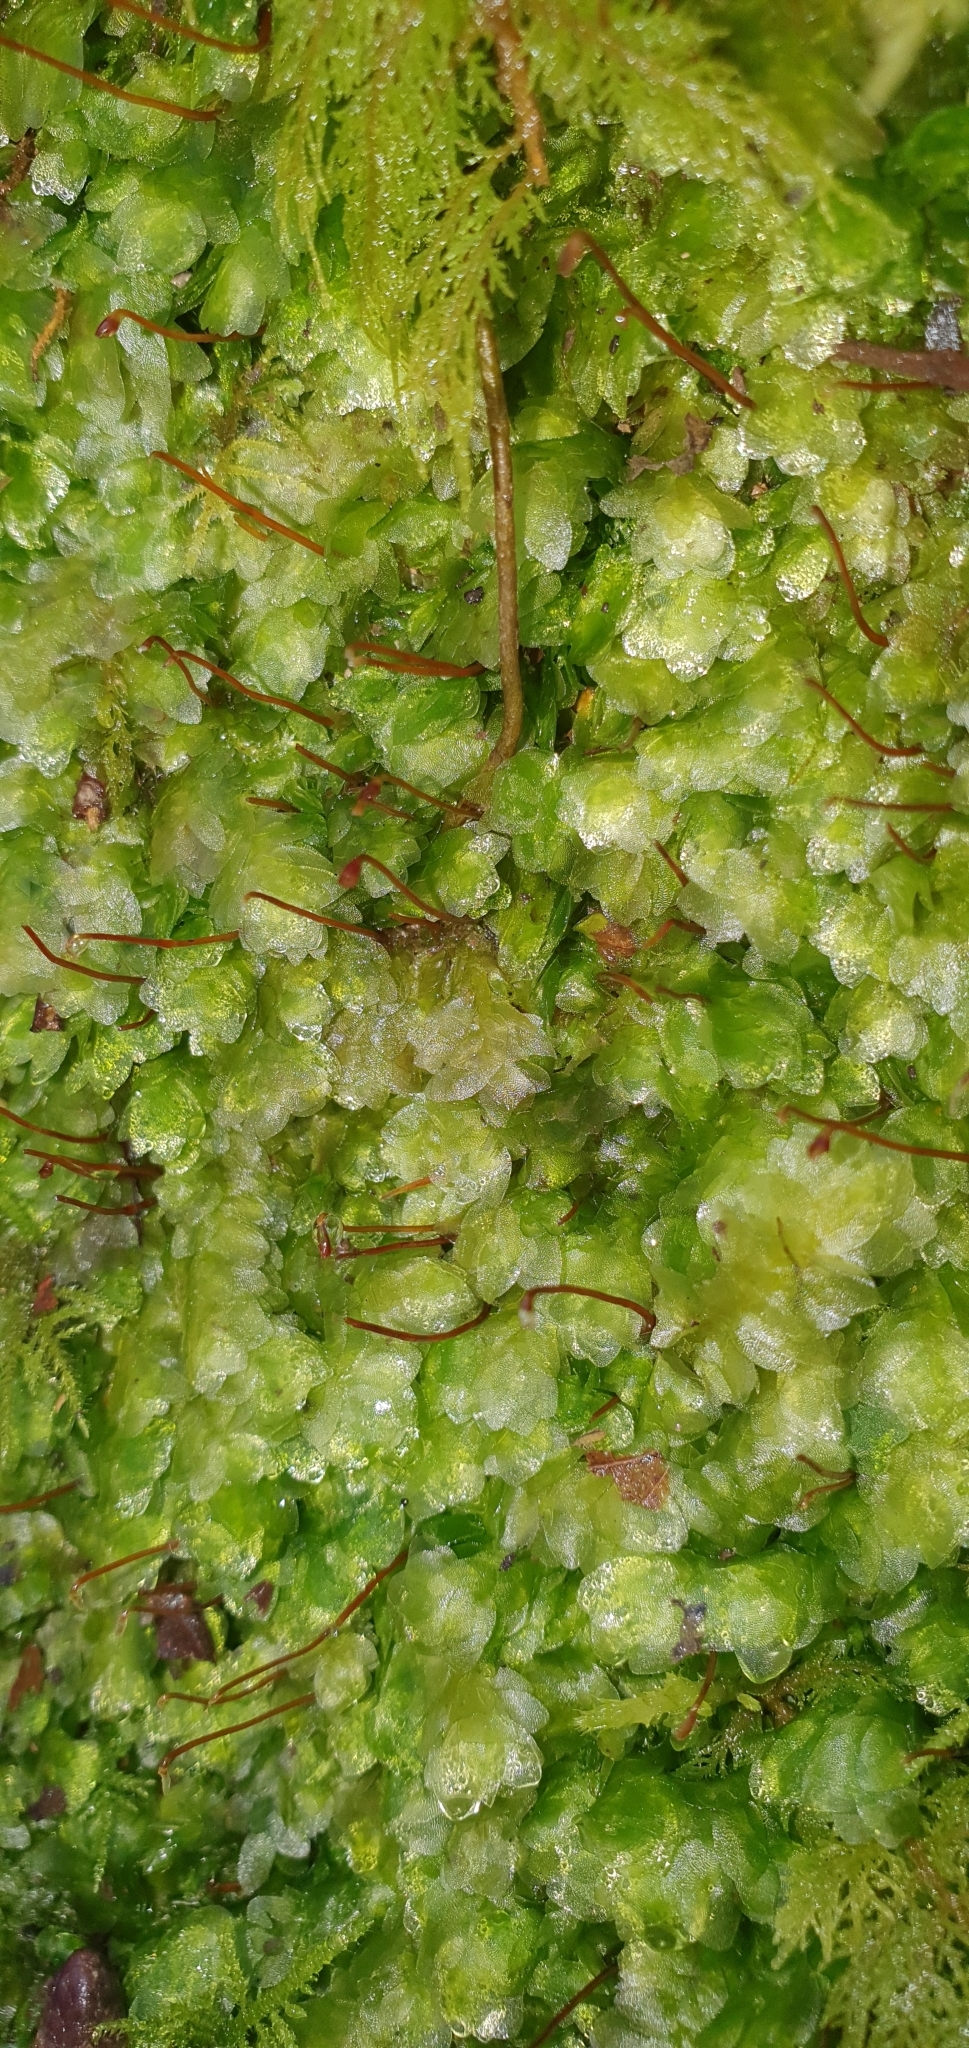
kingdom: Plantae
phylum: Bryophyta
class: Bryopsida
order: Hookeriales
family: Hookeriaceae
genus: Hookeria
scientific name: Hookeria lucens
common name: Shining hookeria
